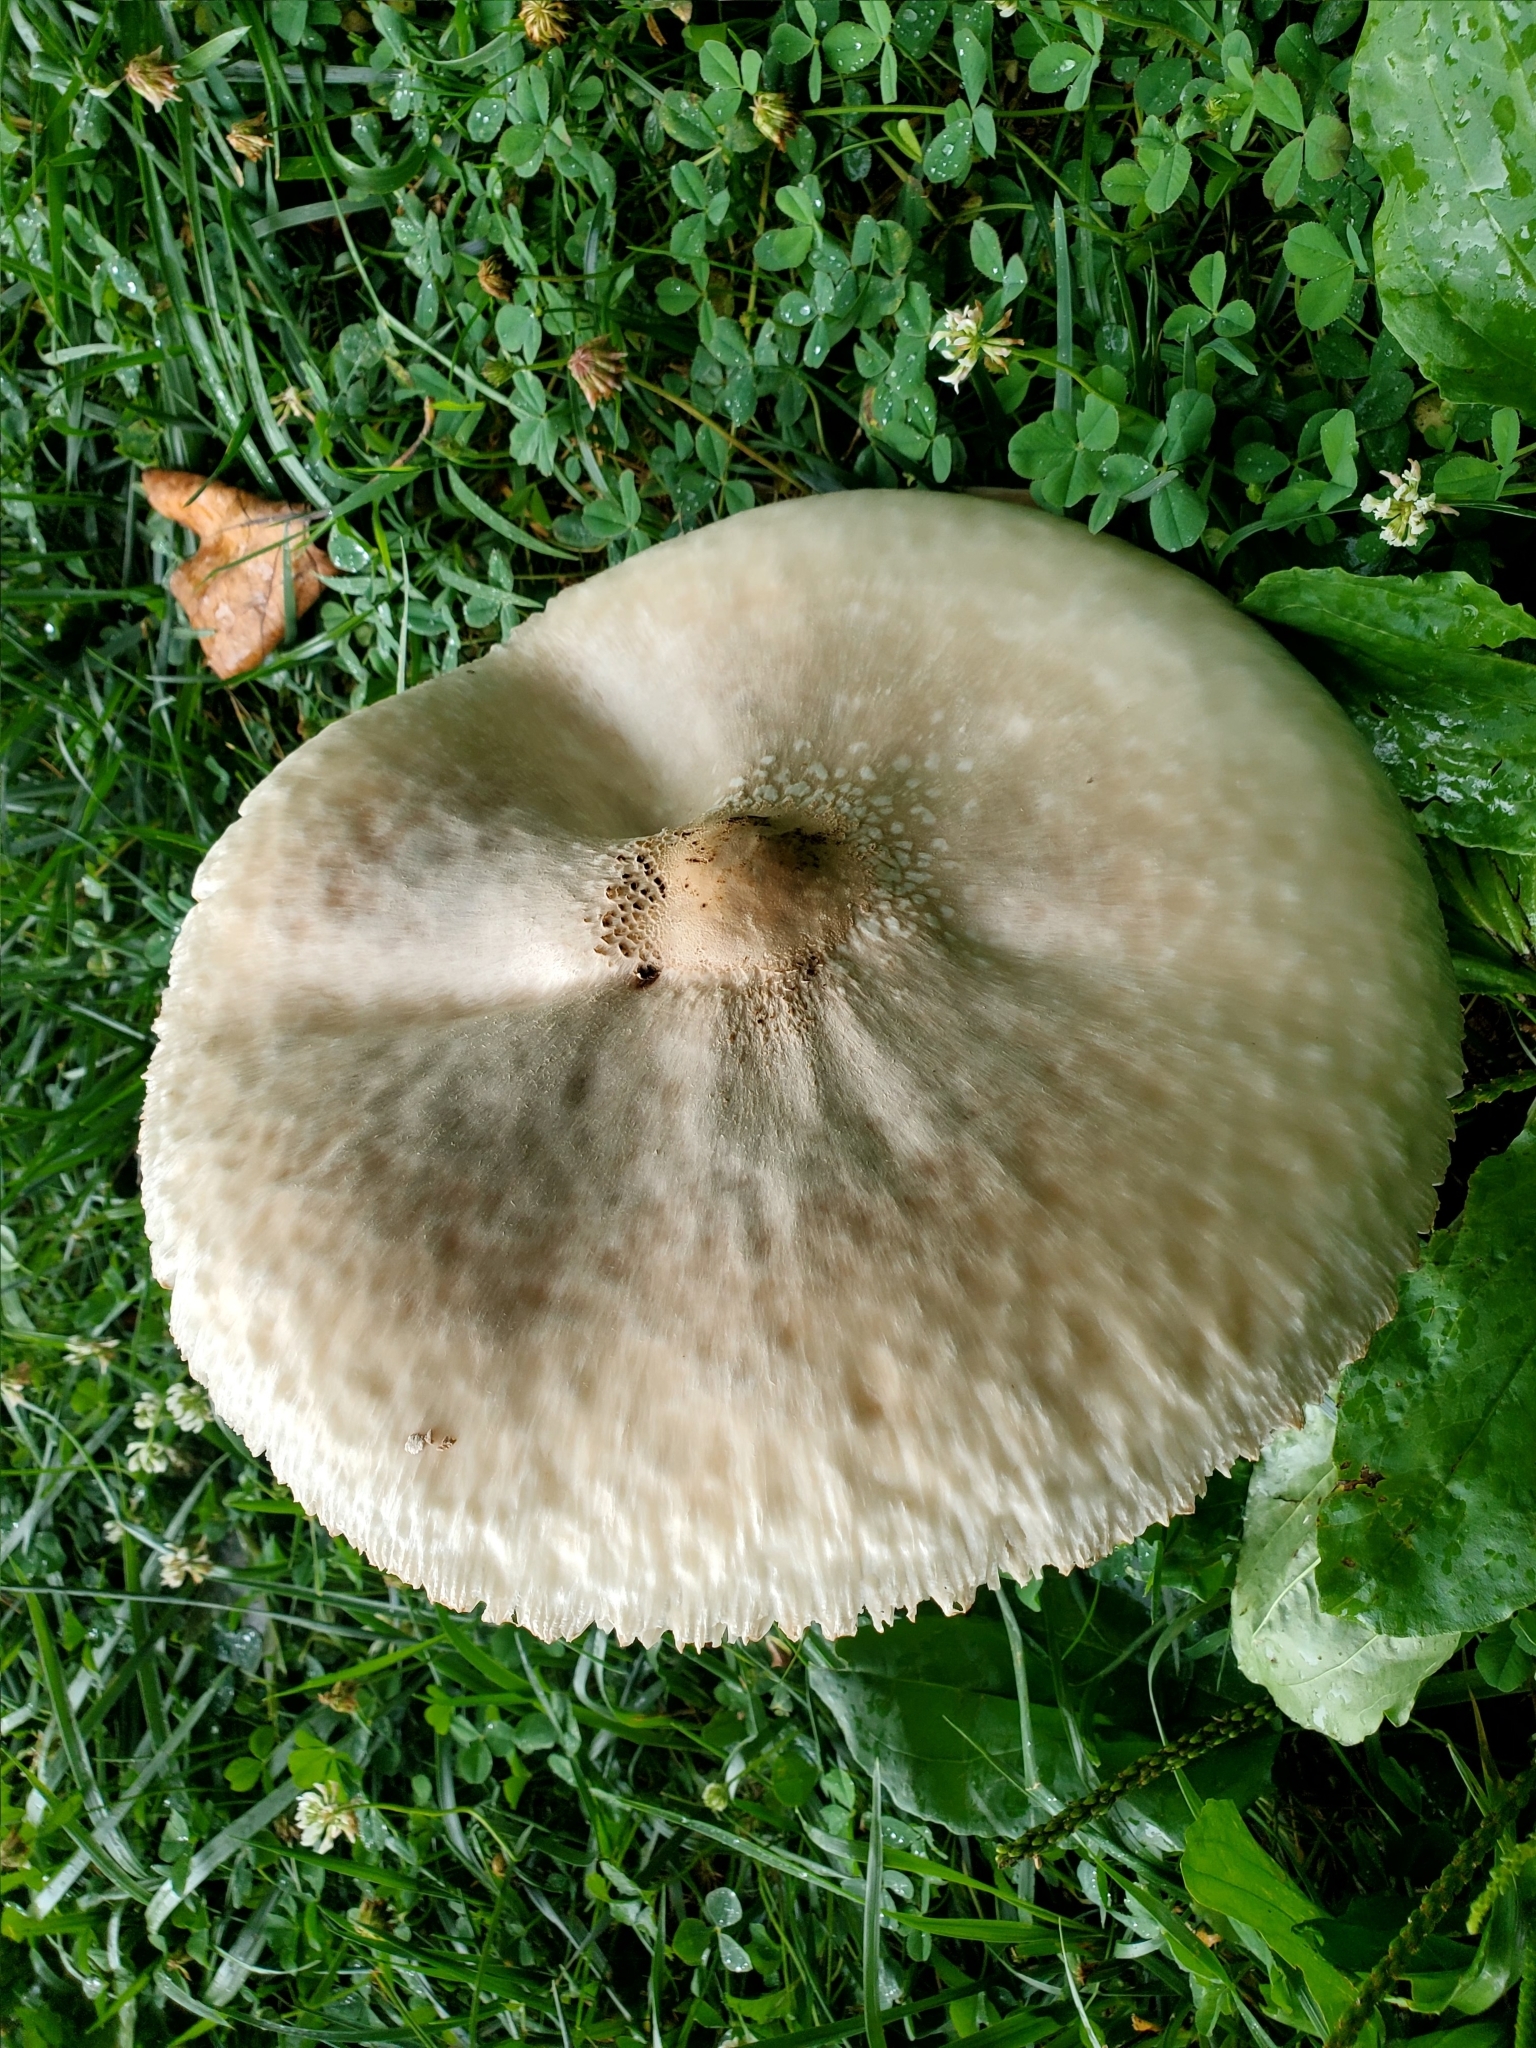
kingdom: Fungi
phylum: Basidiomycota
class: Agaricomycetes
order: Agaricales
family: Agaricaceae
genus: Chlorophyllum
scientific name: Chlorophyllum molybdites
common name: False parasol
